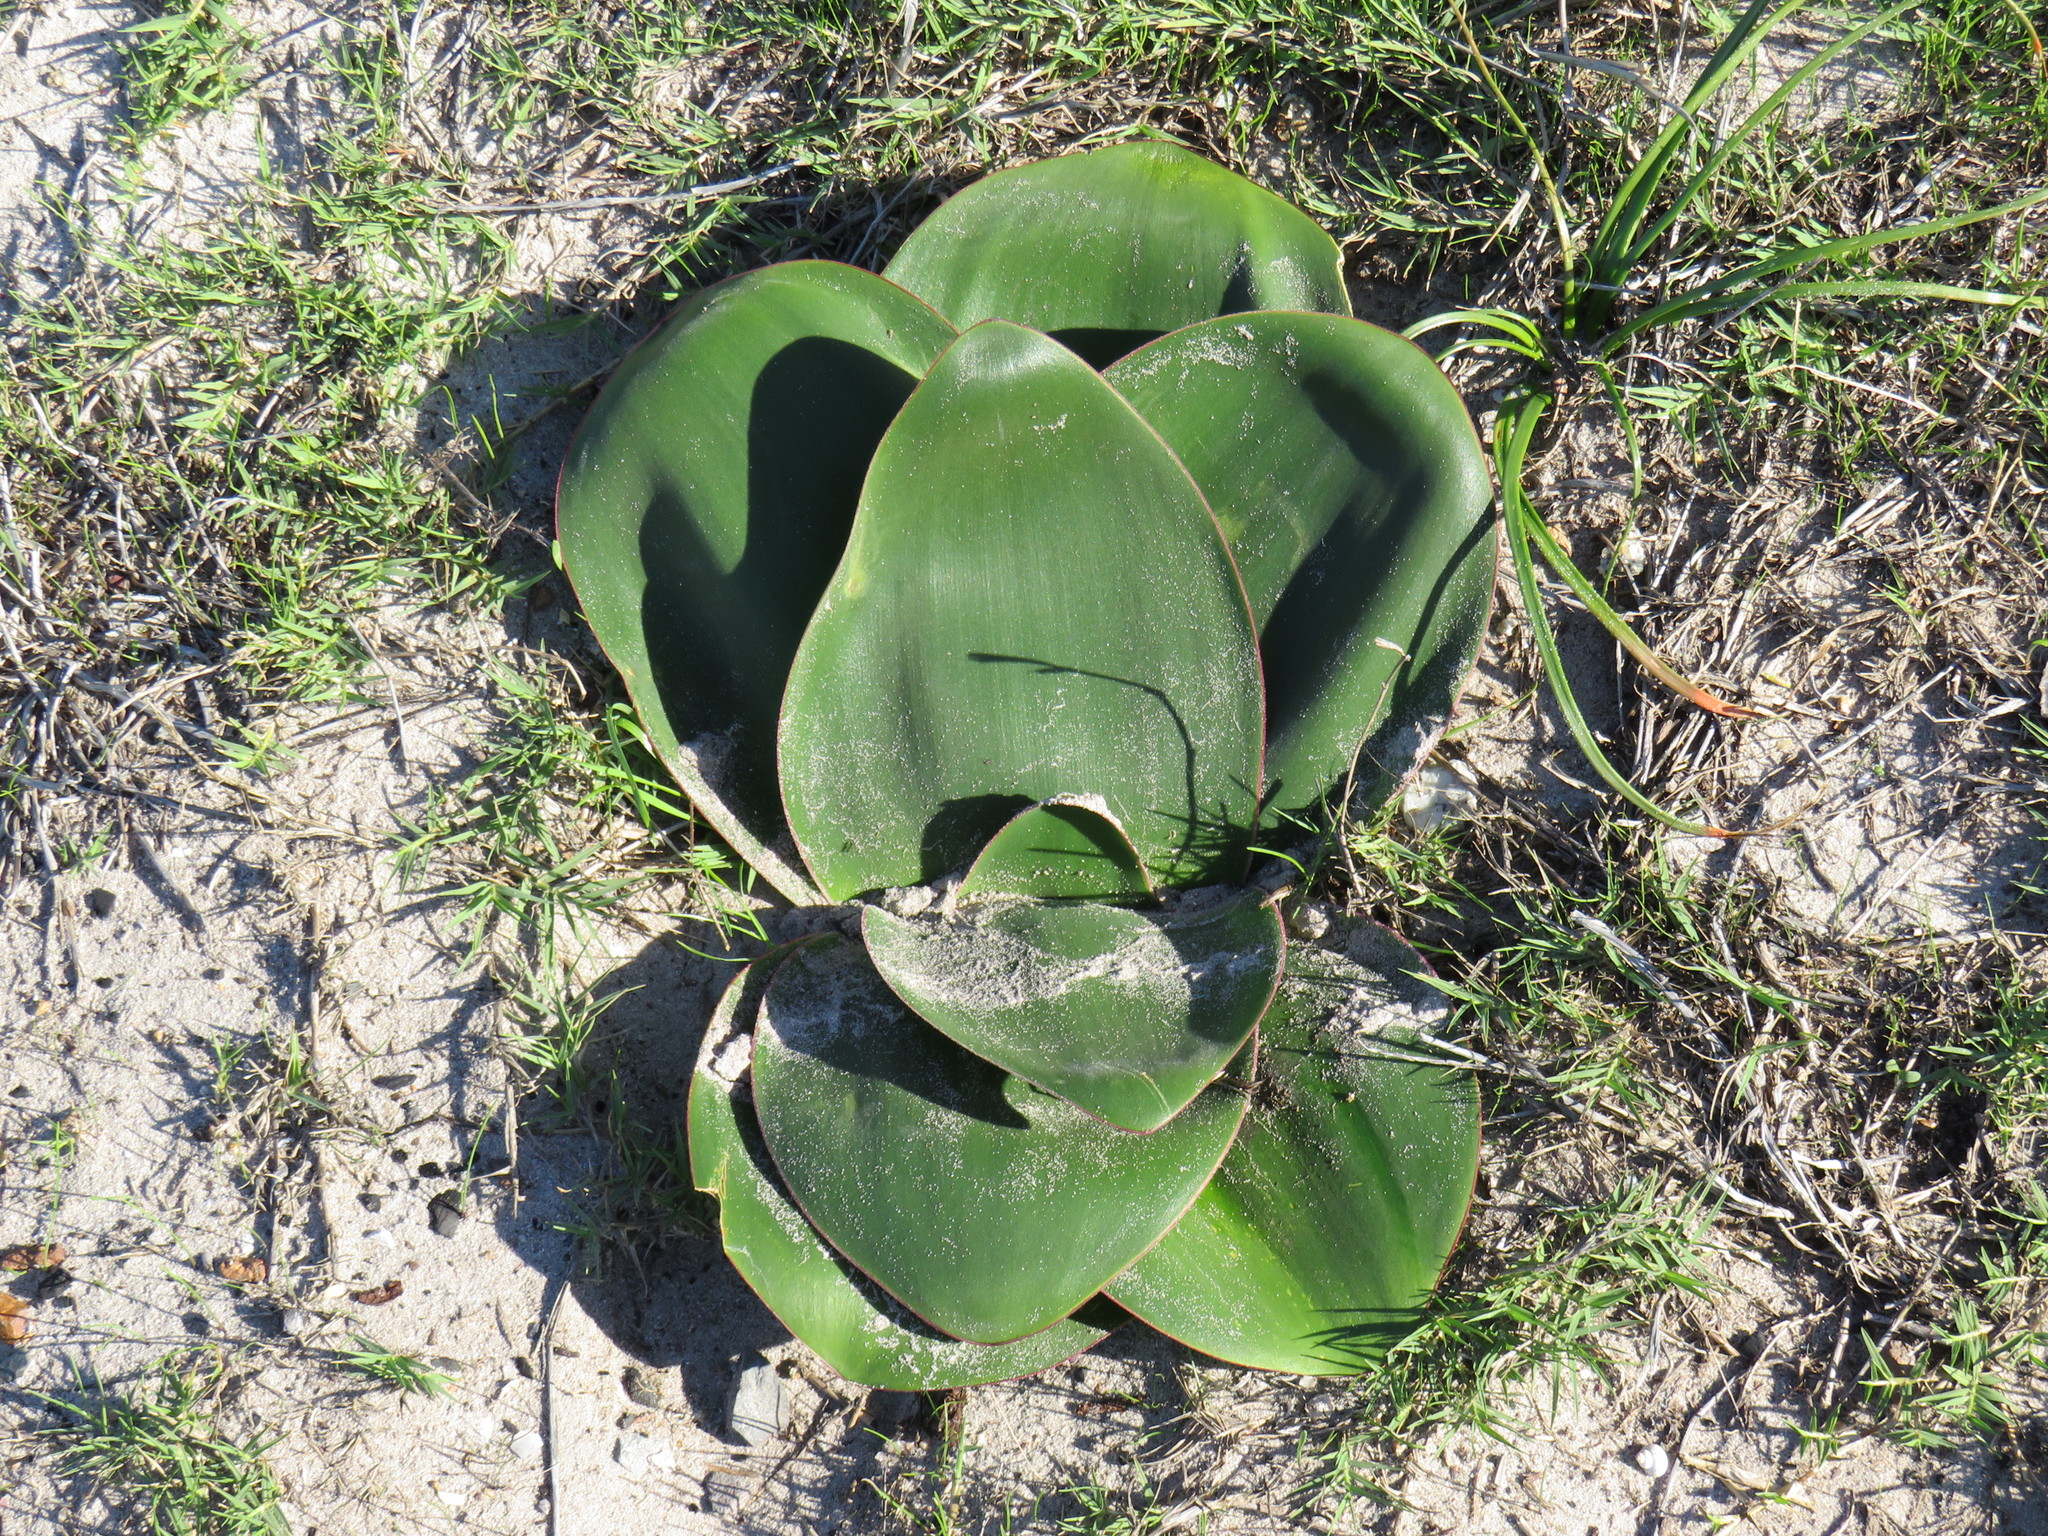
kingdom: Plantae
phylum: Tracheophyta
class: Liliopsida
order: Asparagales
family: Amaryllidaceae
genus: Brunsvigia
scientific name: Brunsvigia orientalis
